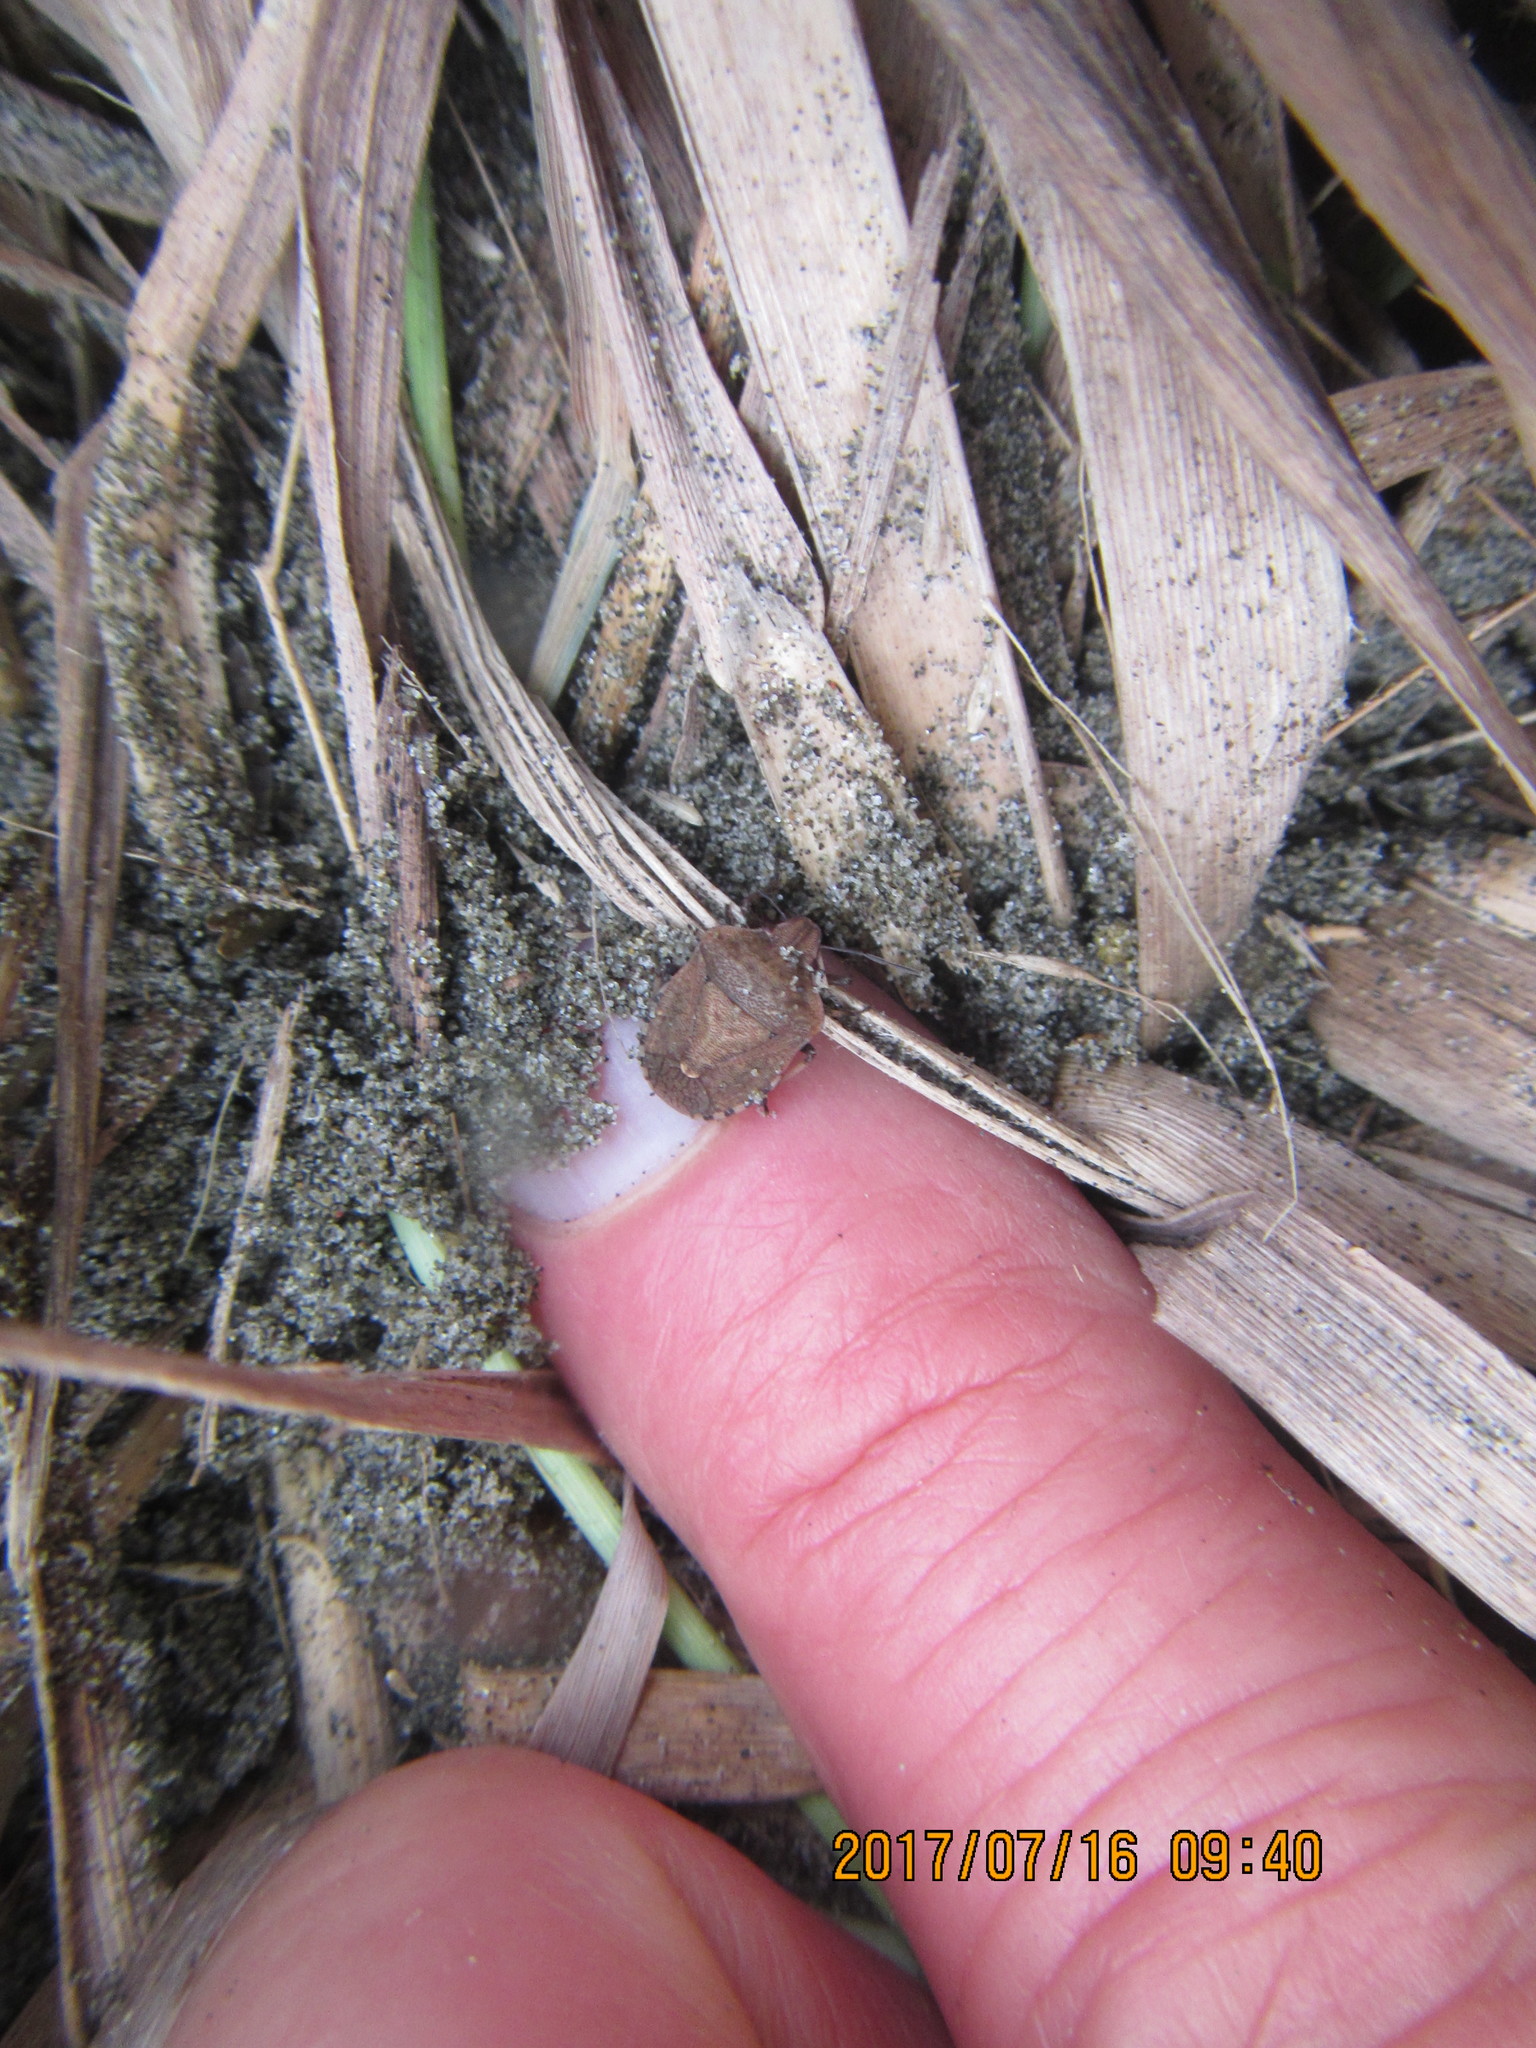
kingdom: Animalia
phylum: Arthropoda
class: Insecta
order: Hemiptera
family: Pentatomidae
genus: Dictyotus
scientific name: Dictyotus caenosus
